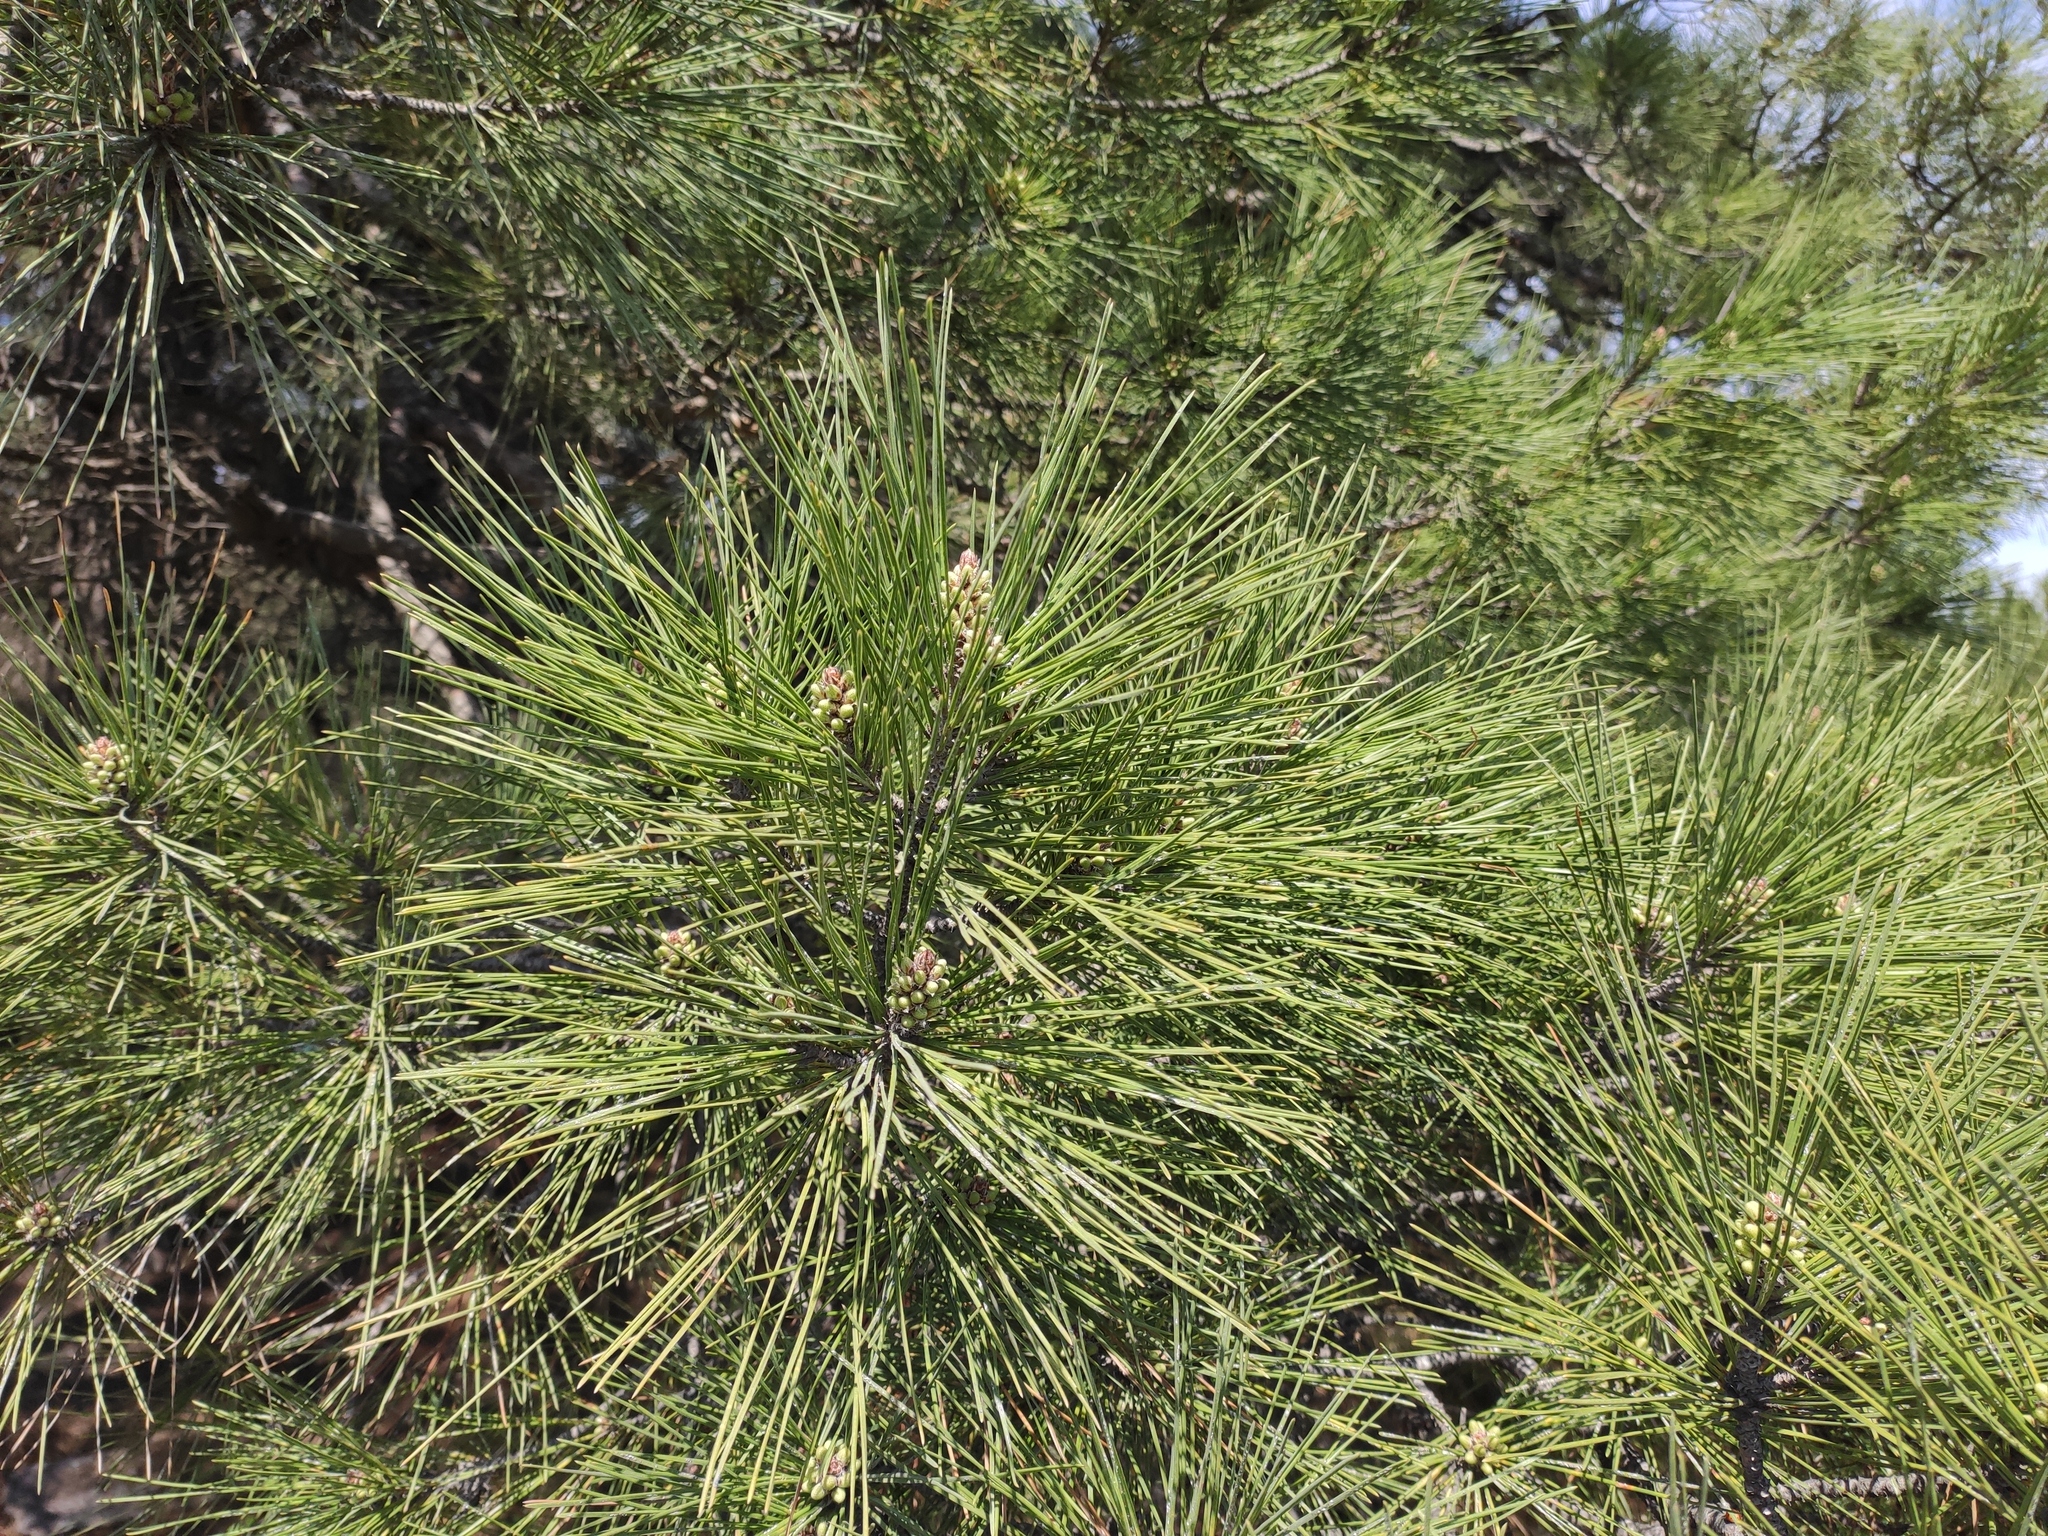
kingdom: Plantae
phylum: Tracheophyta
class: Pinopsida
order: Pinales
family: Pinaceae
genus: Pinus
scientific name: Pinus brutia
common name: Turkish pine
